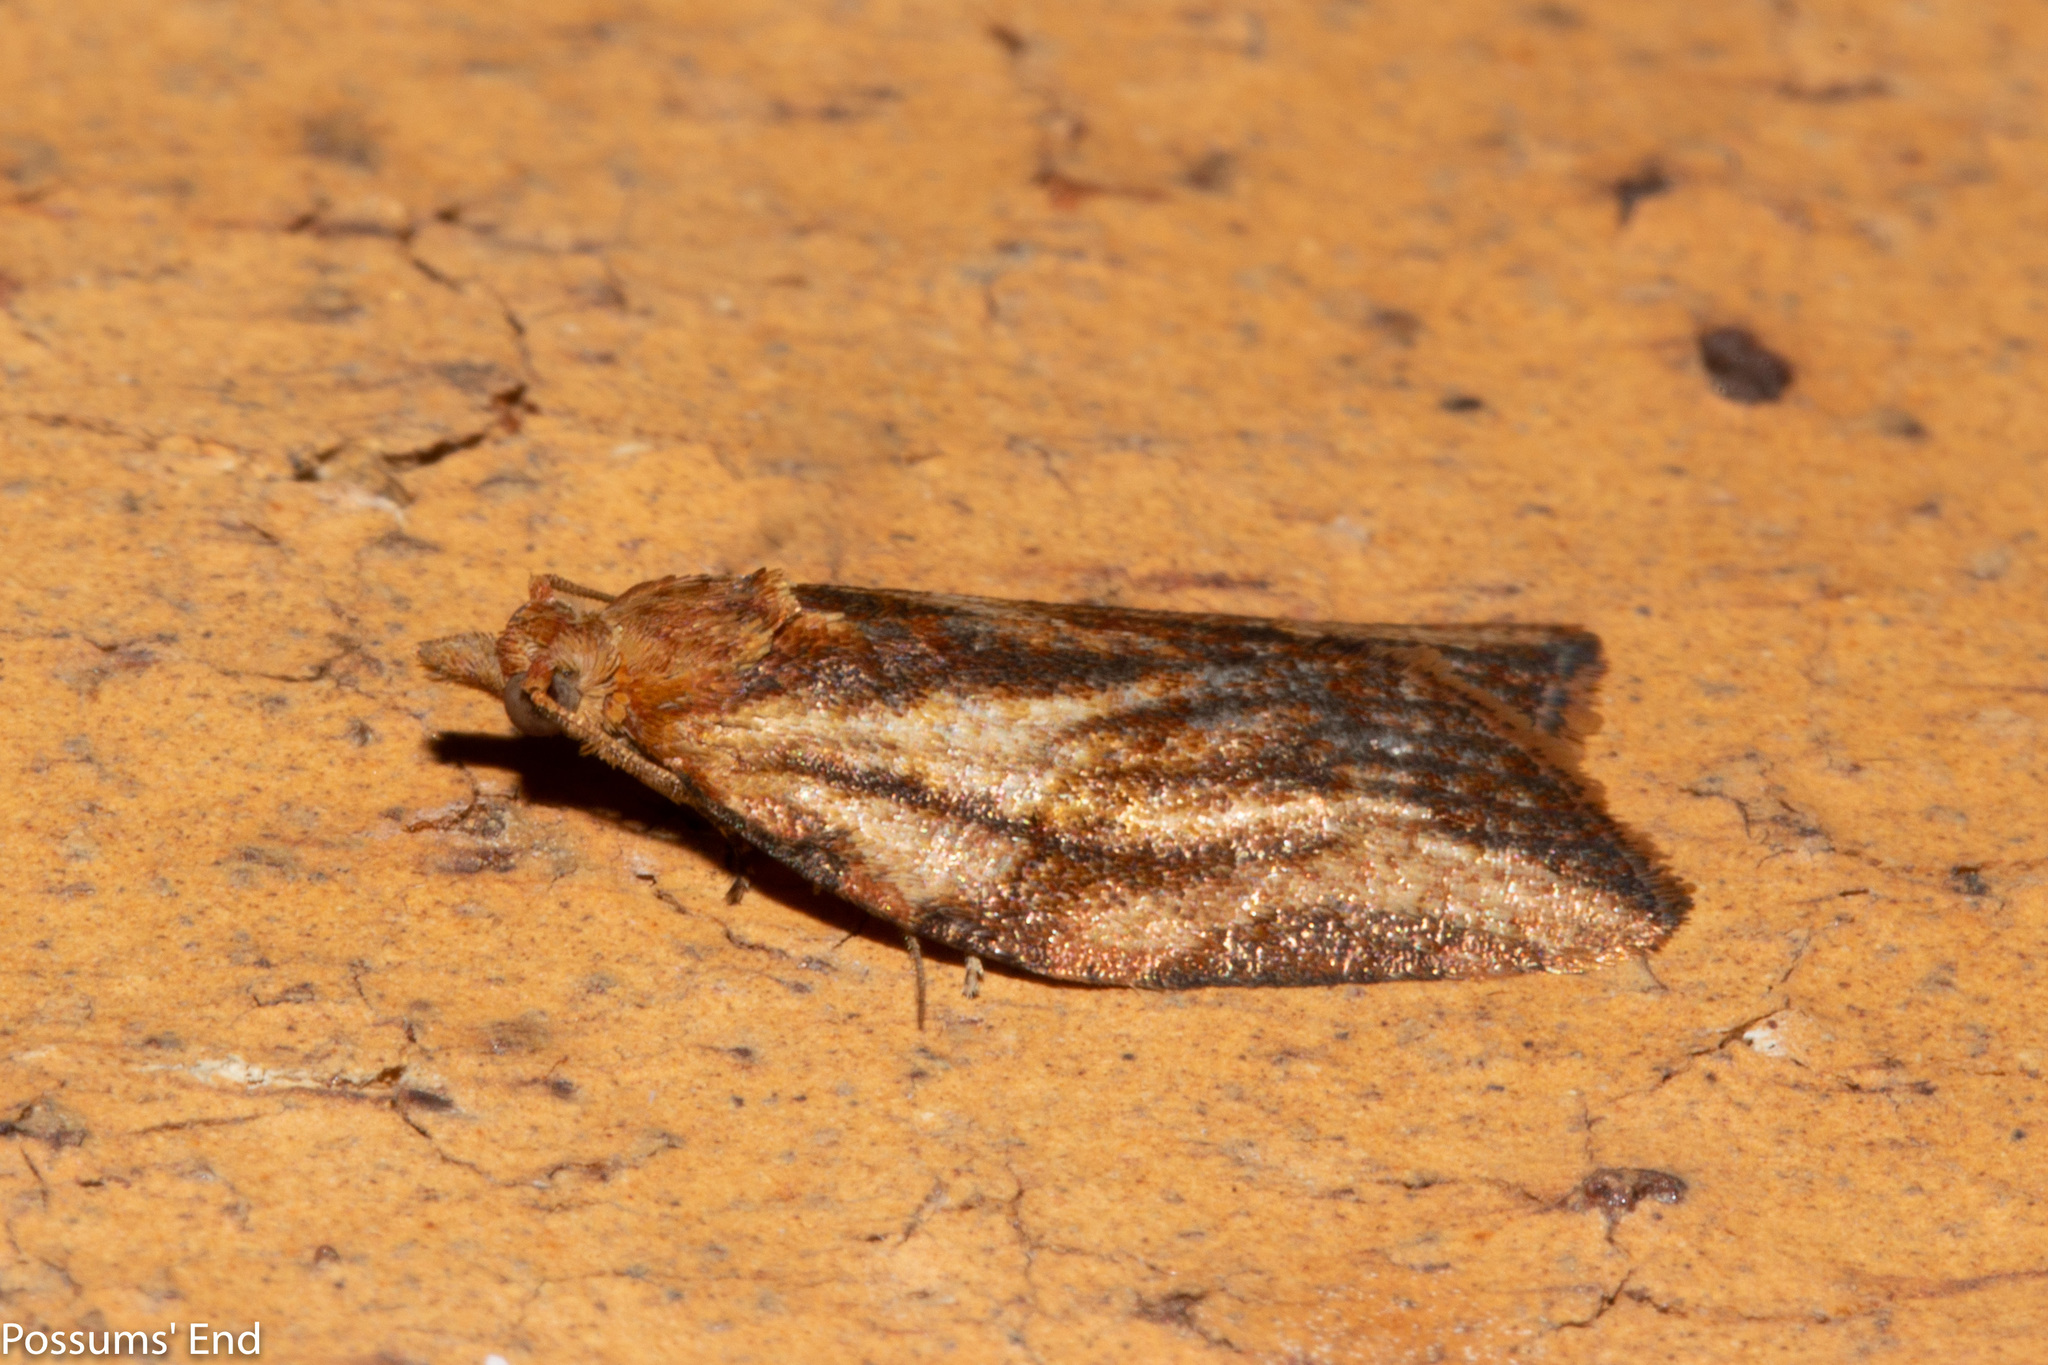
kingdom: Animalia
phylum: Arthropoda
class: Insecta
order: Lepidoptera
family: Tortricidae
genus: Epiphyas
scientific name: Epiphyas postvittana
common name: Light brown apple moth
